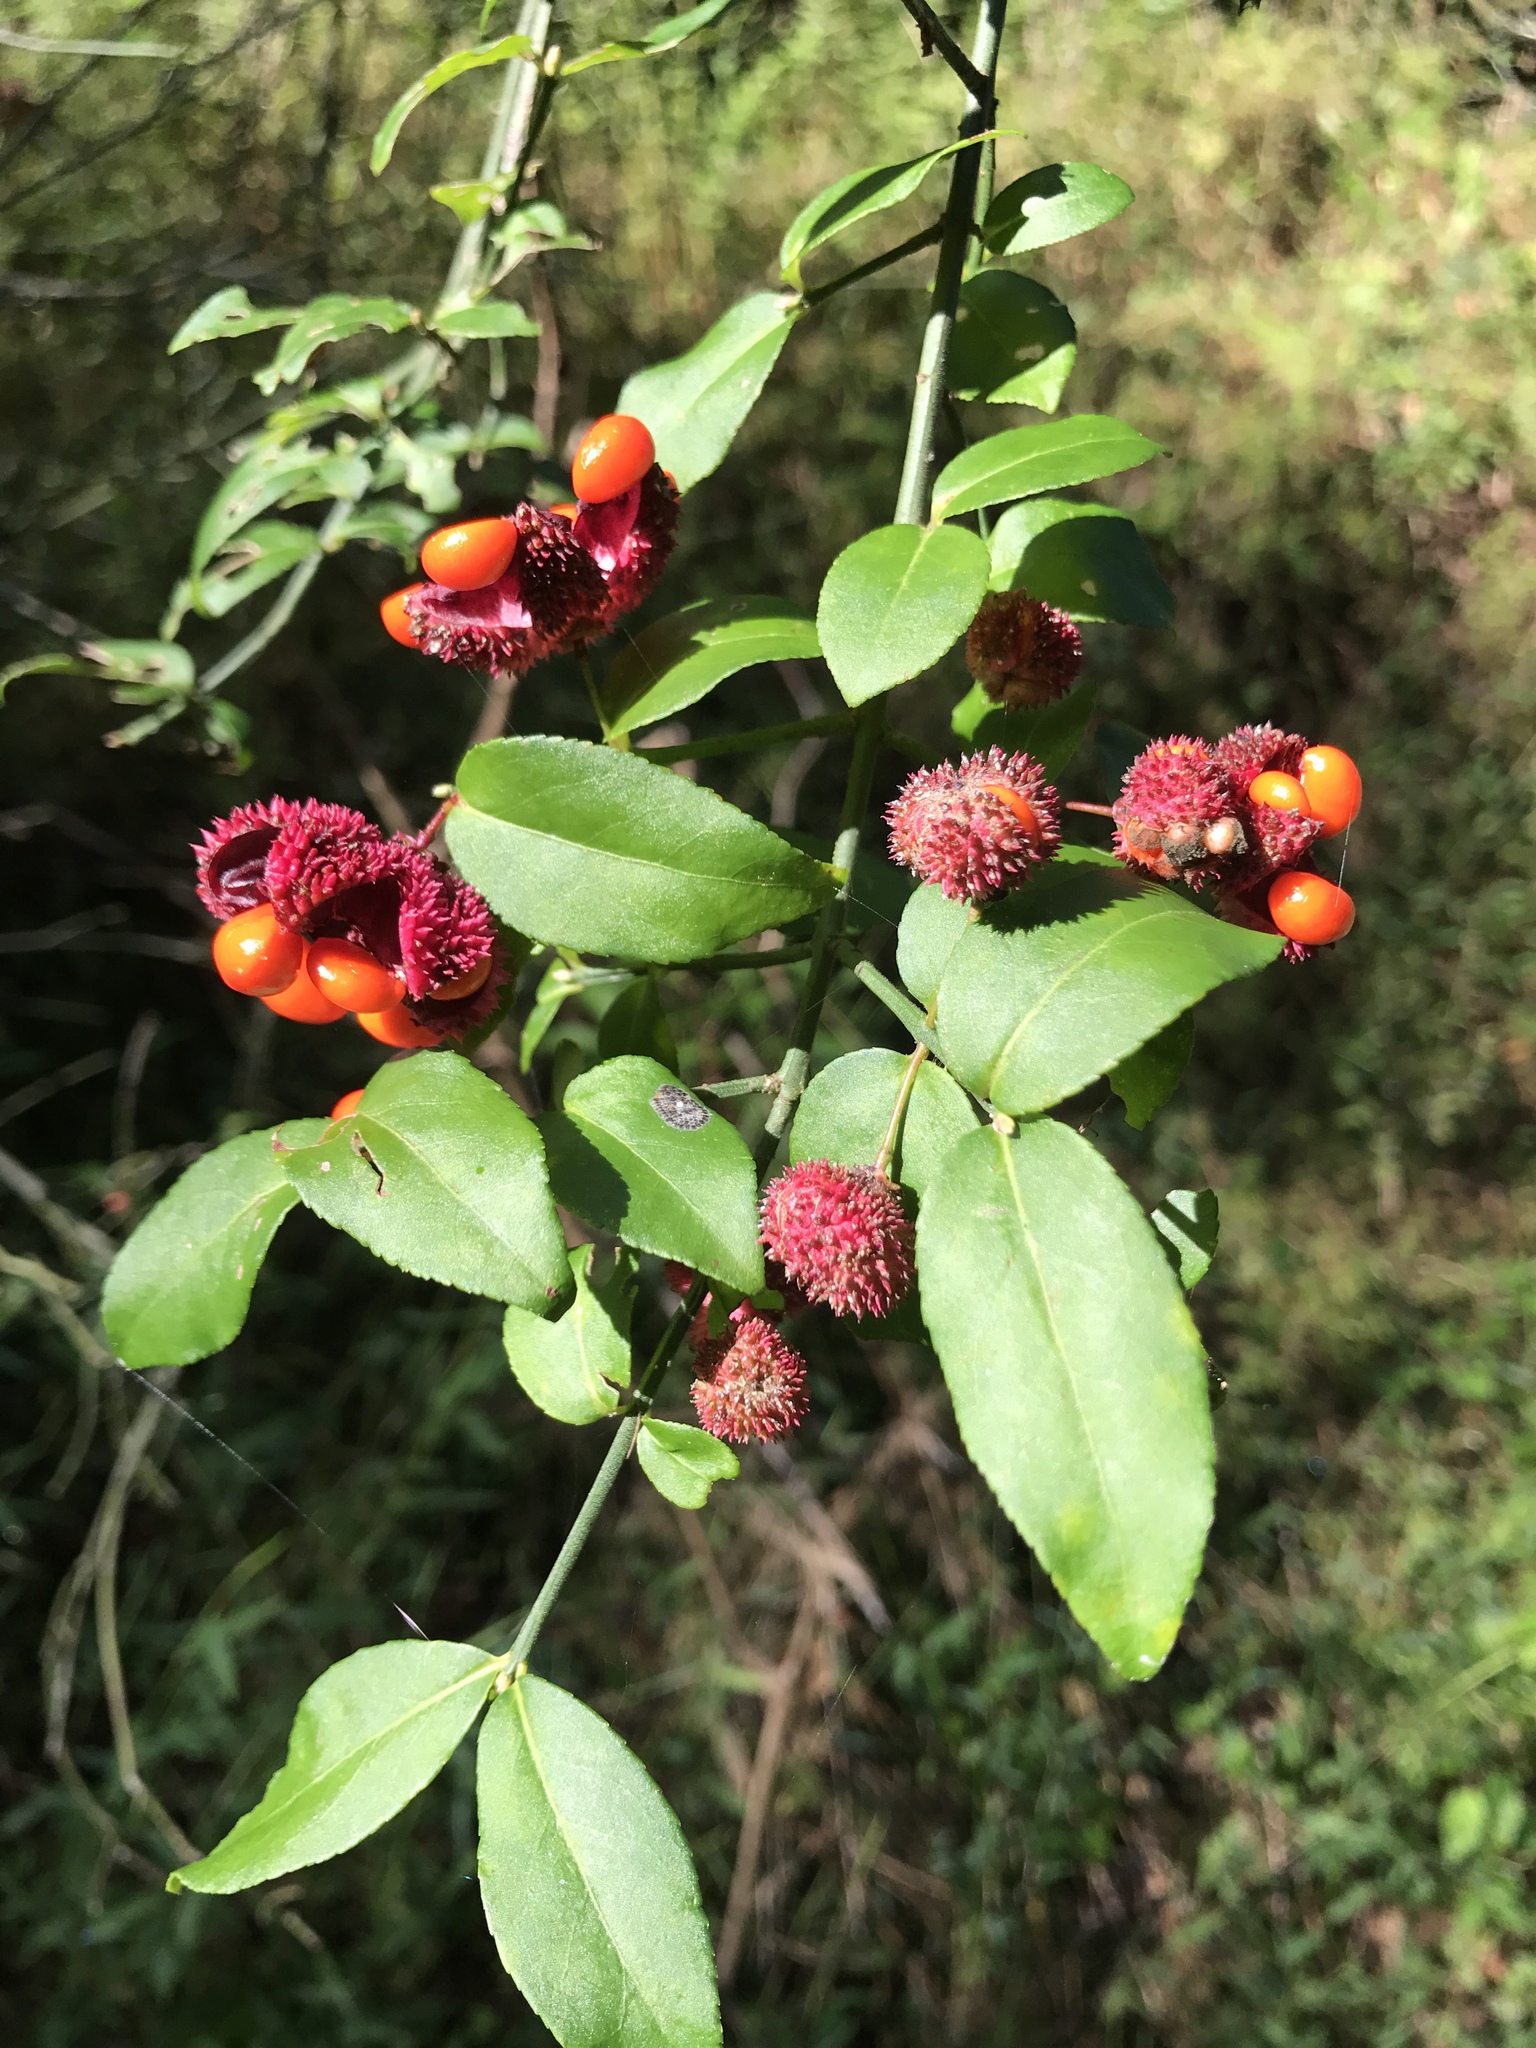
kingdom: Plantae
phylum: Tracheophyta
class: Magnoliopsida
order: Celastrales
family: Celastraceae
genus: Euonymus
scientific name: Euonymus americanus
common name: Bursting-heart
